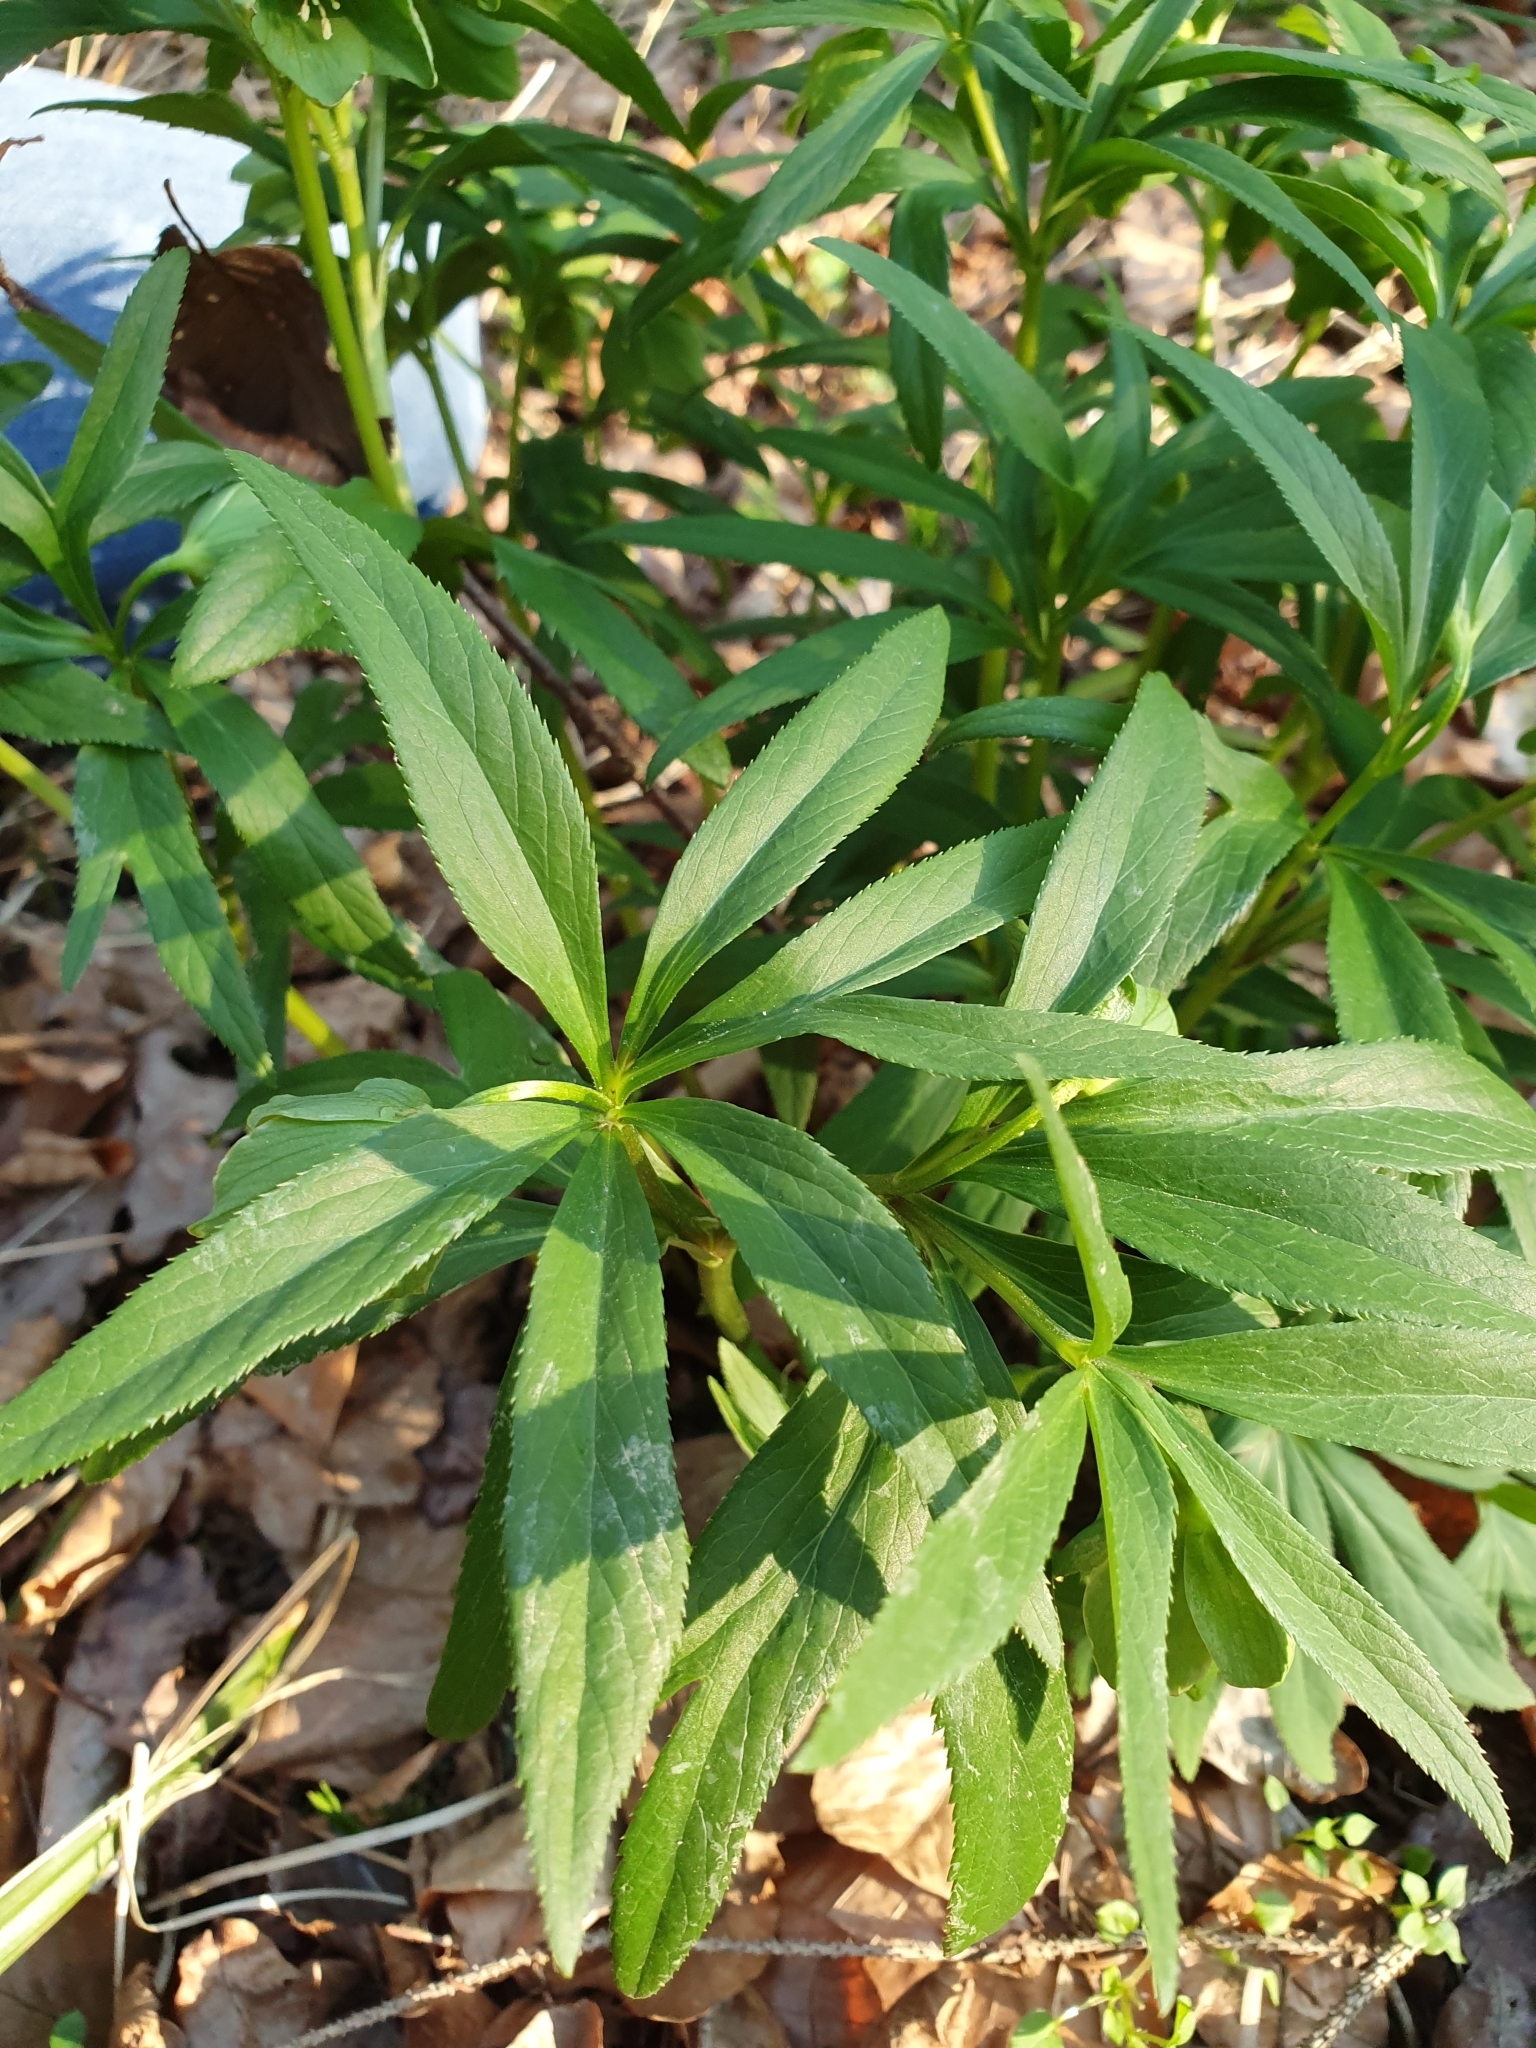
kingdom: Plantae
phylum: Tracheophyta
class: Magnoliopsida
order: Ranunculales
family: Ranunculaceae
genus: Helleborus
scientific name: Helleborus dumetorum
